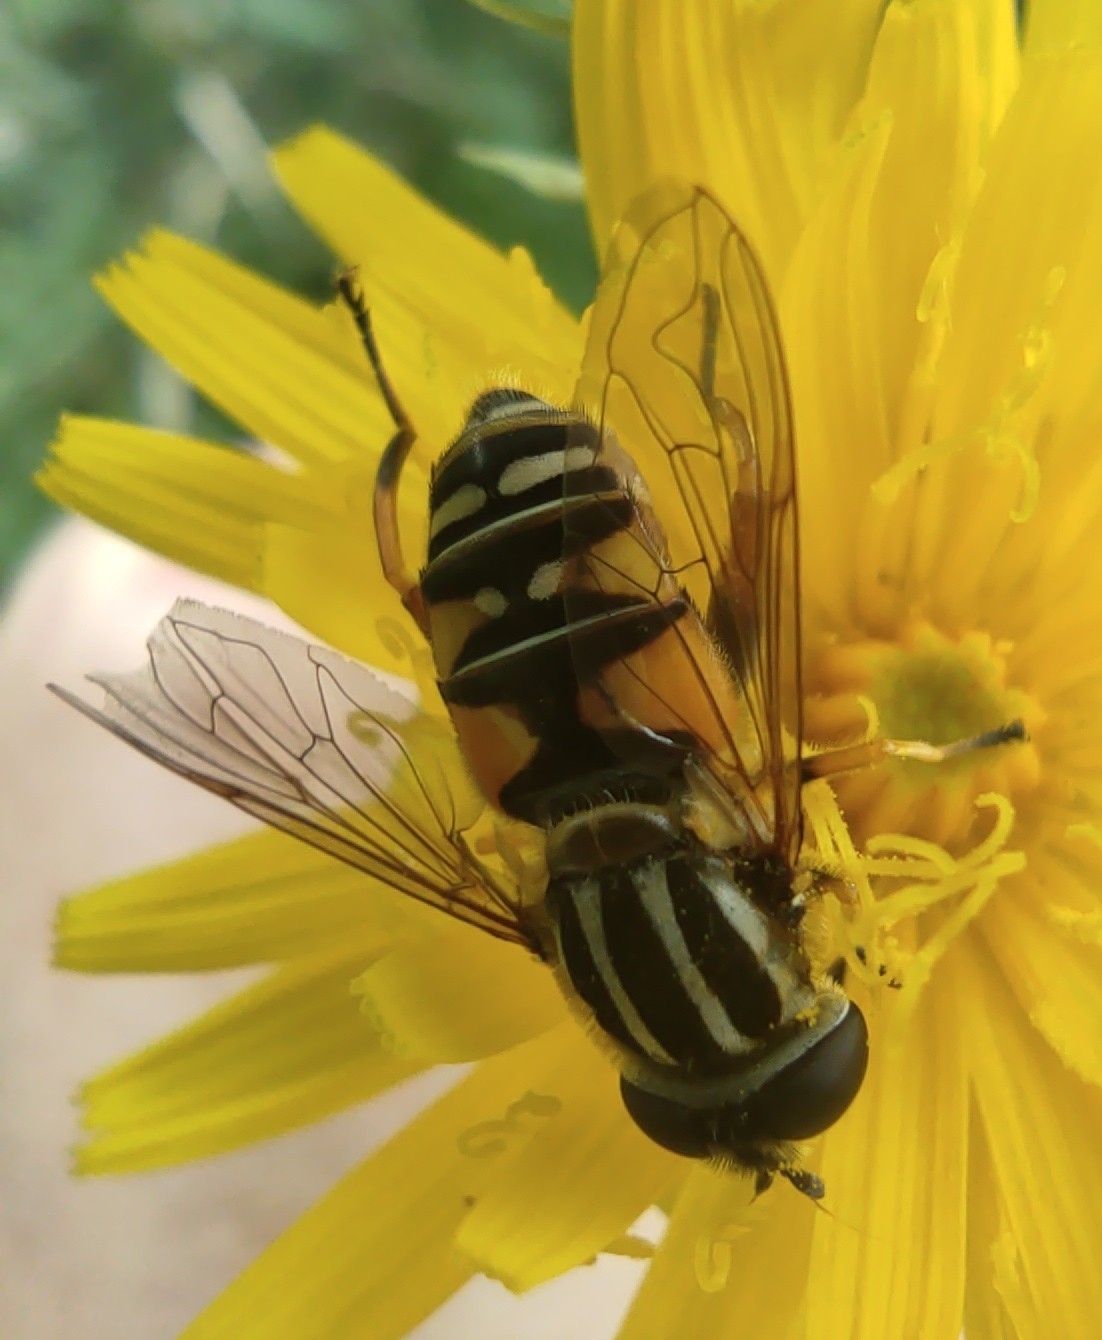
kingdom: Animalia
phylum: Arthropoda
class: Insecta
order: Diptera
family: Syrphidae
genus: Helophilus
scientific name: Helophilus pendulus
